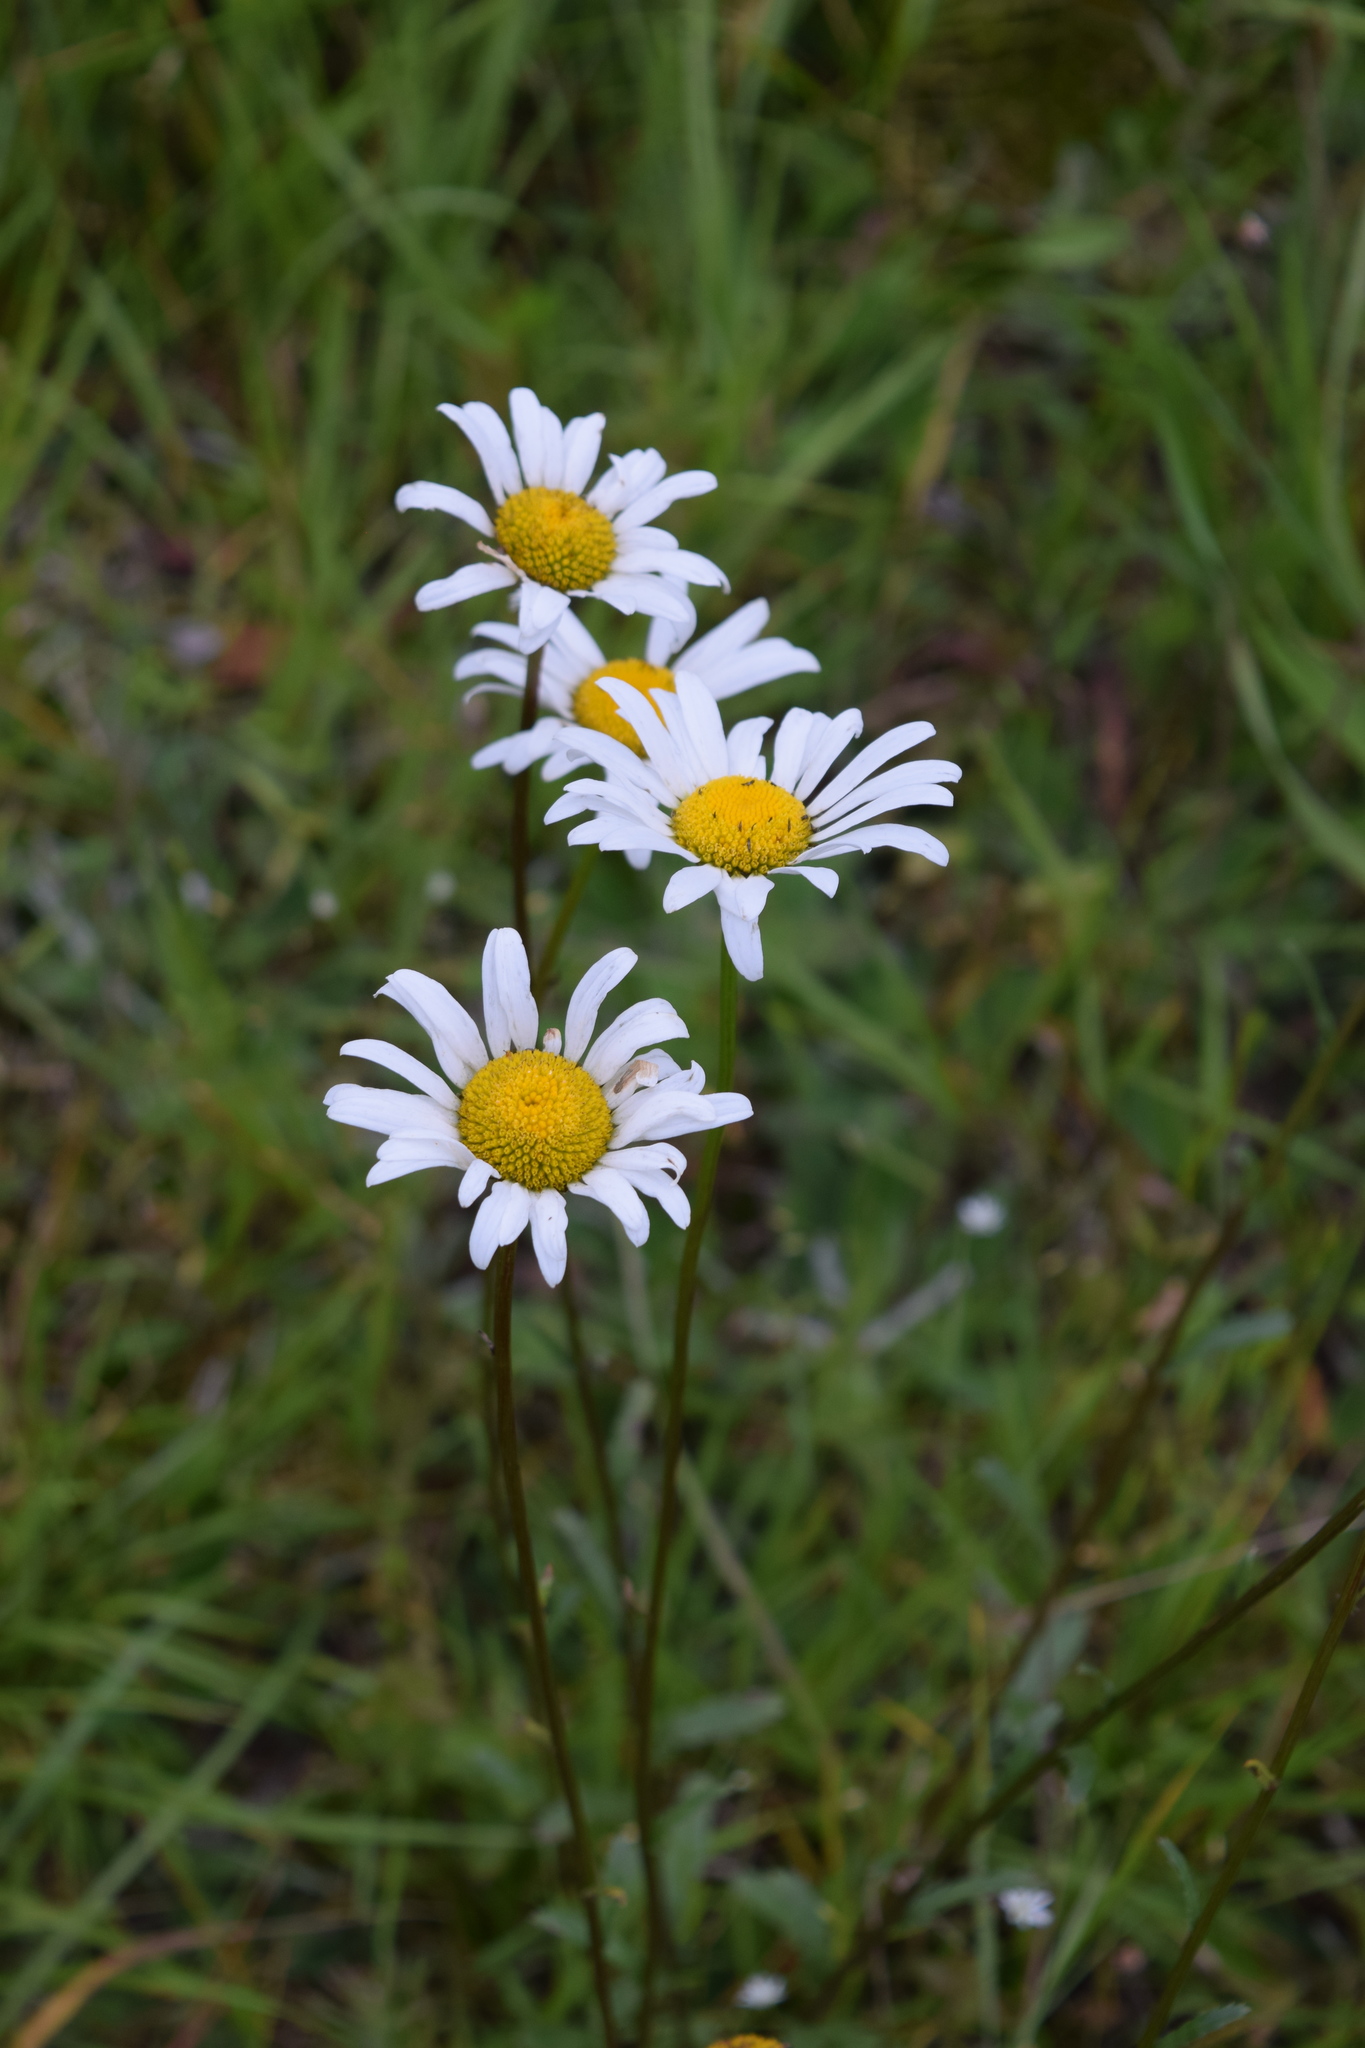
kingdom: Plantae
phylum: Tracheophyta
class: Magnoliopsida
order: Asterales
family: Asteraceae
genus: Leucanthemum
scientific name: Leucanthemum vulgare
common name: Oxeye daisy
